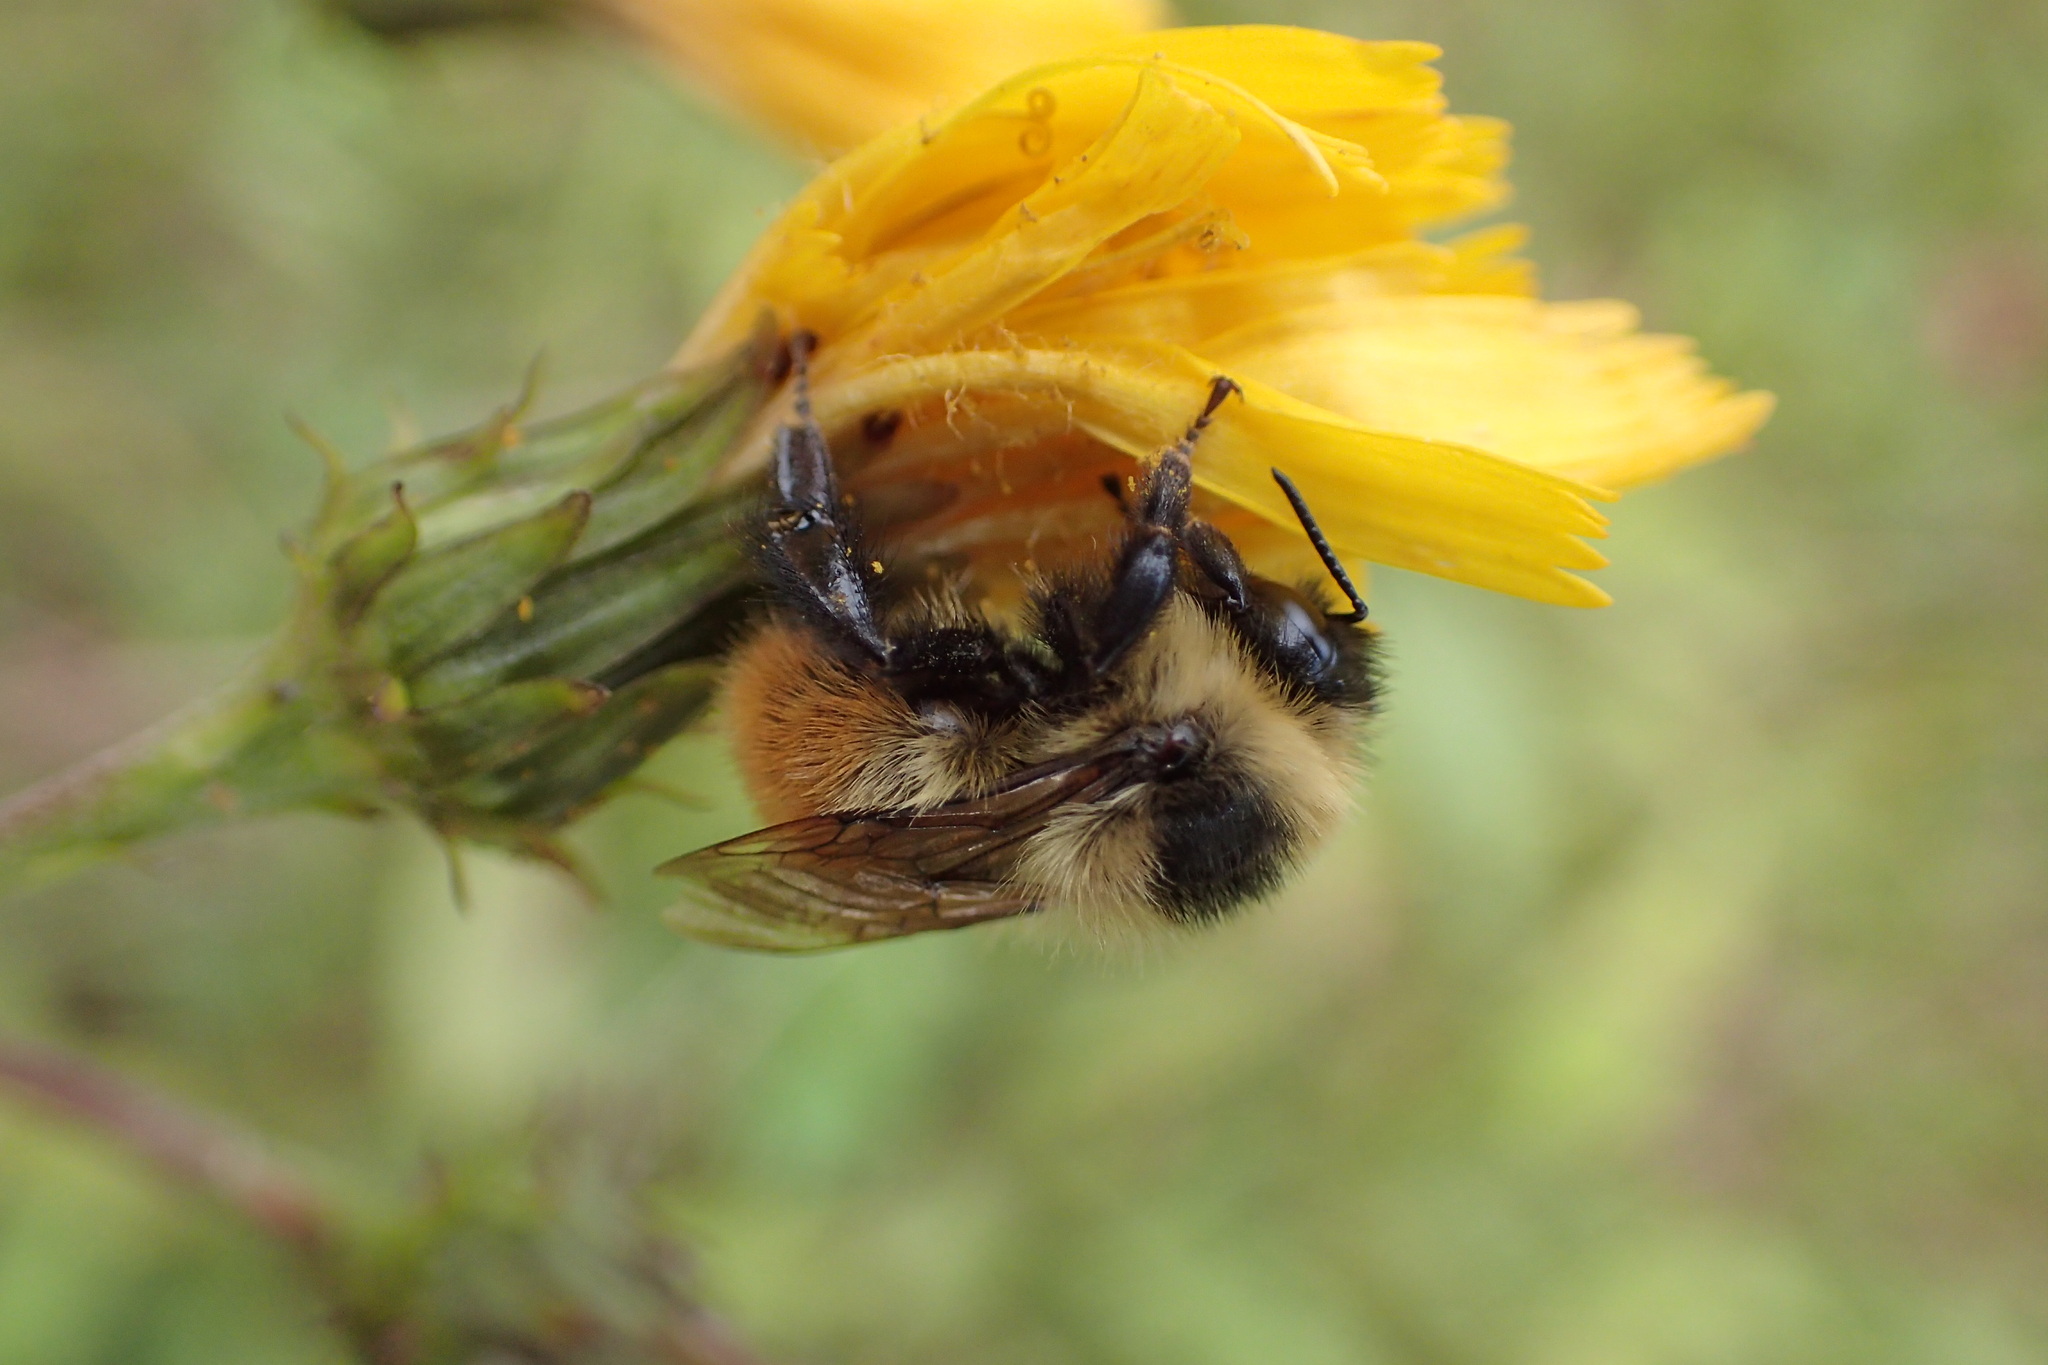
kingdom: Animalia
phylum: Arthropoda
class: Insecta
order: Hymenoptera
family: Apidae
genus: Bombus
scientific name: Bombus rufocinctus
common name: Red-belted bumble bee
